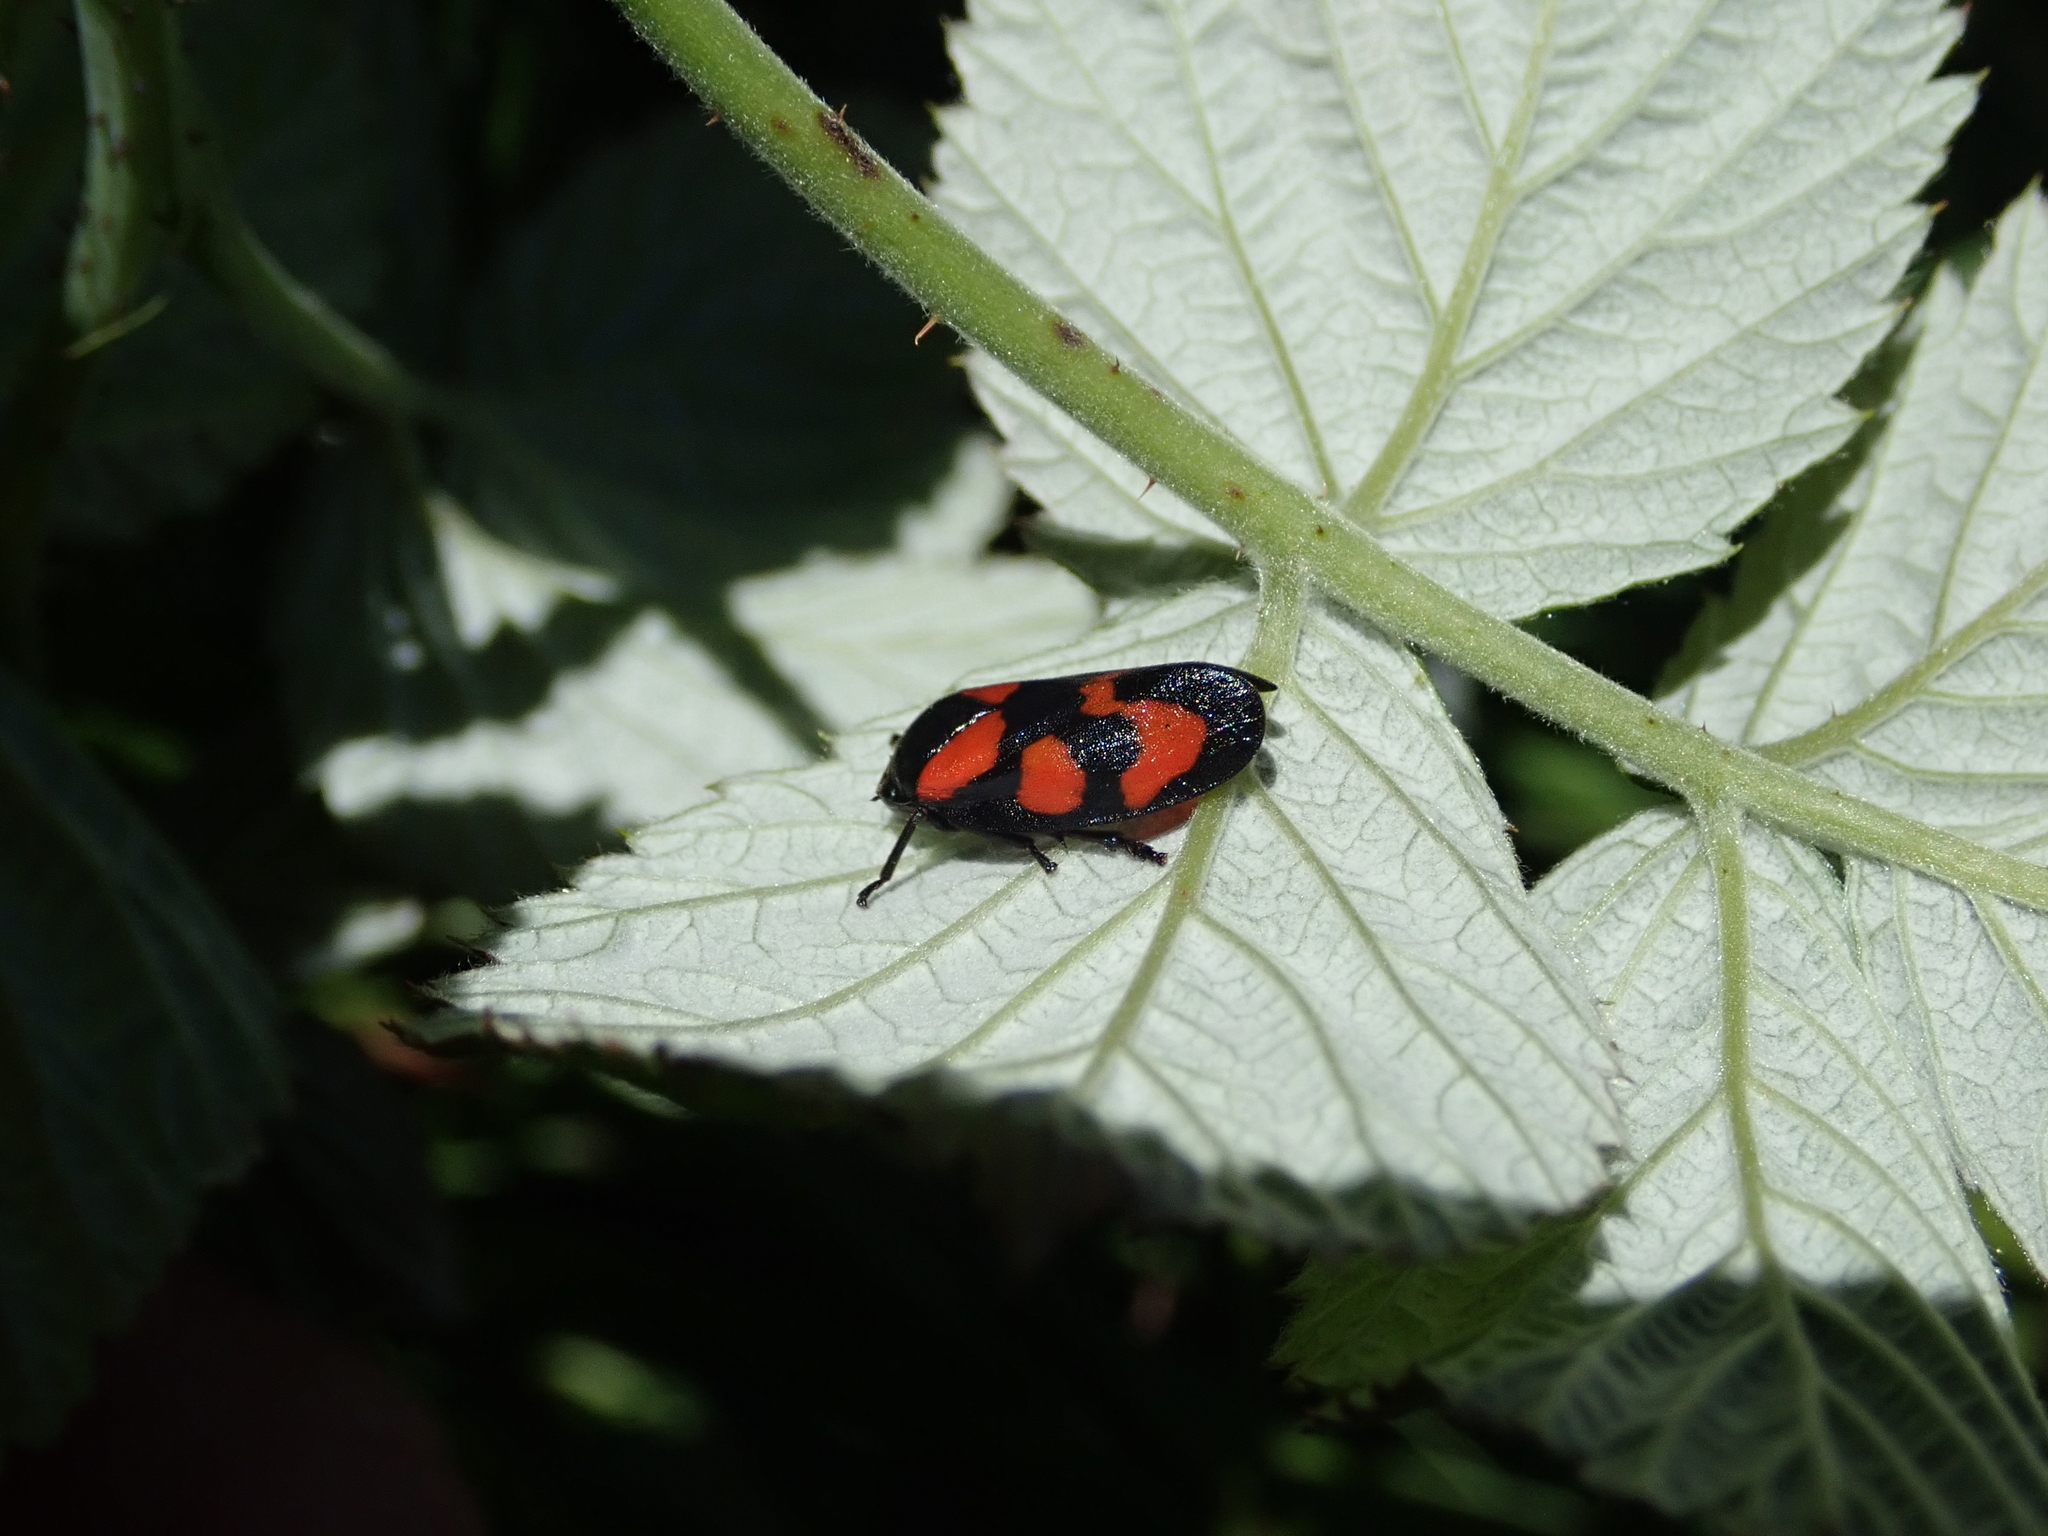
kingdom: Animalia
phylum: Arthropoda
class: Insecta
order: Hemiptera
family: Cercopidae
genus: Cercopis
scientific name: Cercopis vulnerata
